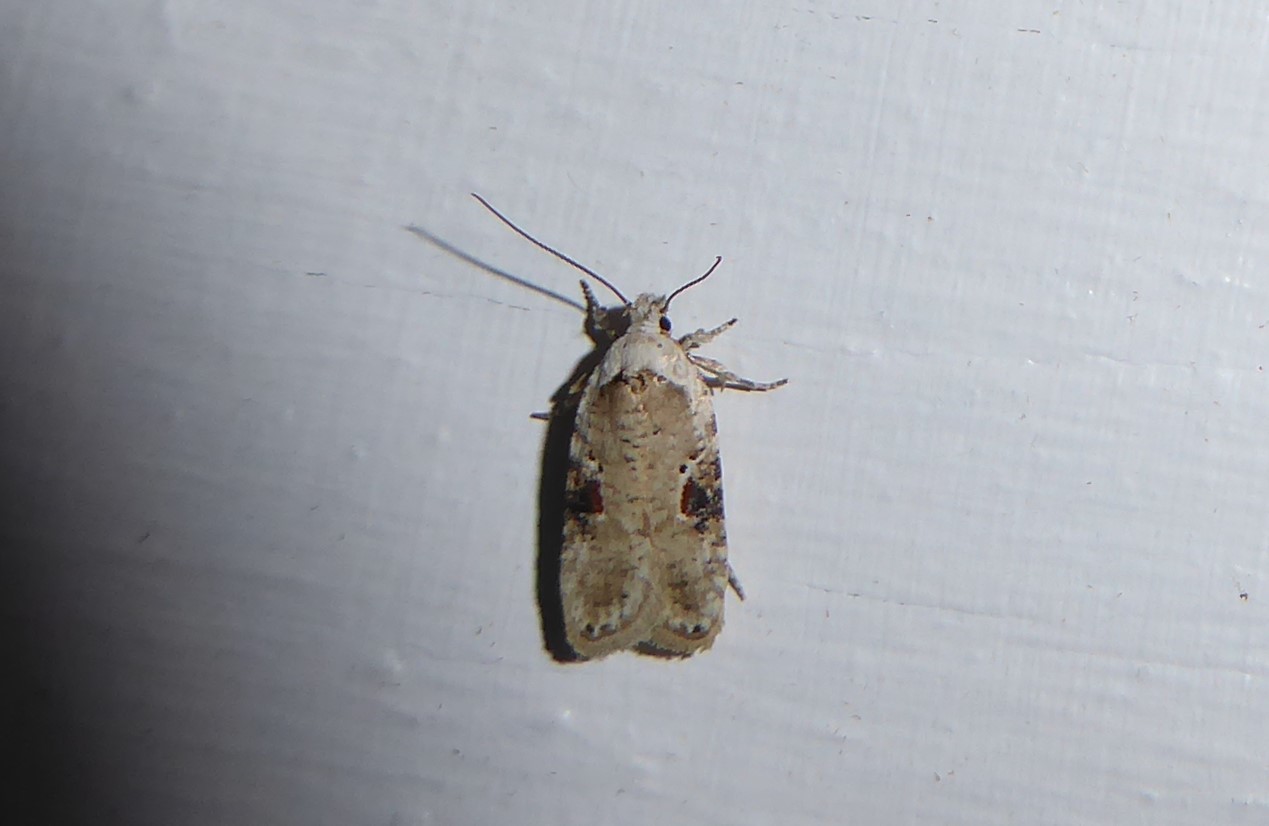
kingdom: Animalia
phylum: Arthropoda
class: Insecta
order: Lepidoptera
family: Depressariidae
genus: Agonopterix
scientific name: Agonopterix alstroemeriana
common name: Moth
